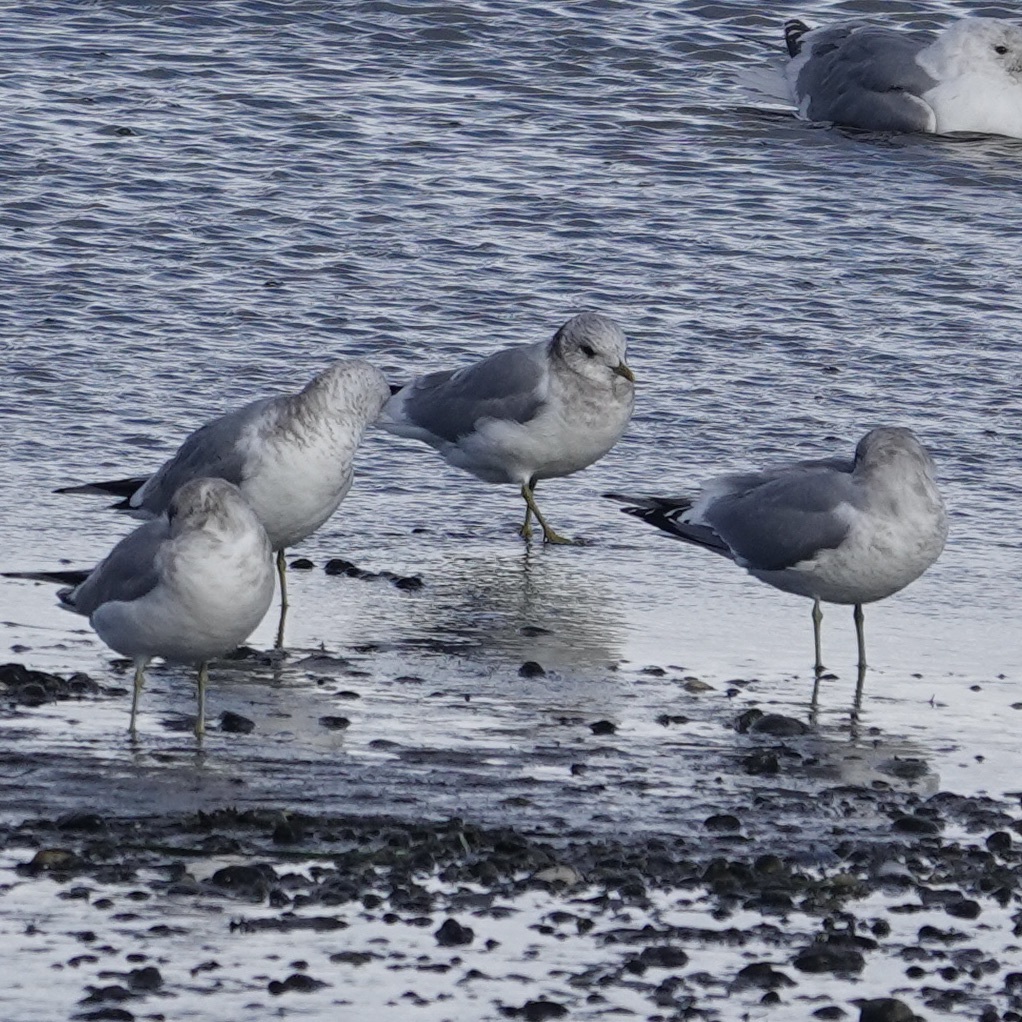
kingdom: Animalia
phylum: Chordata
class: Aves
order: Charadriiformes
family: Laridae
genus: Larus
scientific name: Larus brachyrhynchus
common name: Short-billed gull
